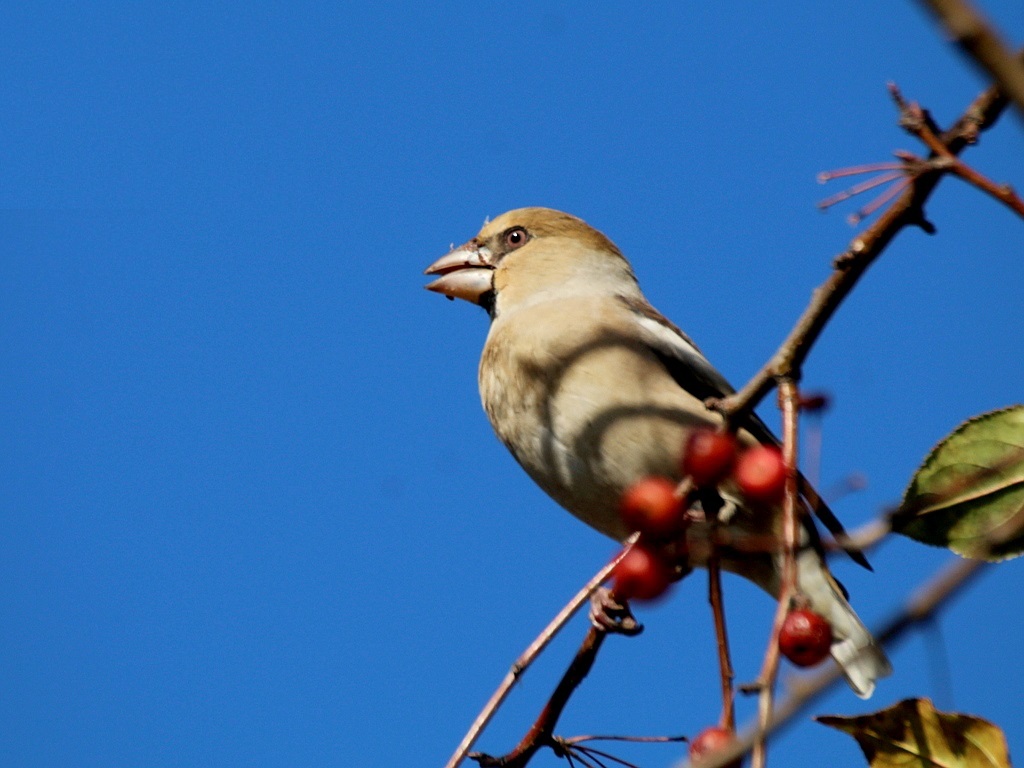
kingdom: Animalia
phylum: Chordata
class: Aves
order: Passeriformes
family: Fringillidae
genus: Coccothraustes
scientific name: Coccothraustes coccothraustes
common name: Hawfinch
